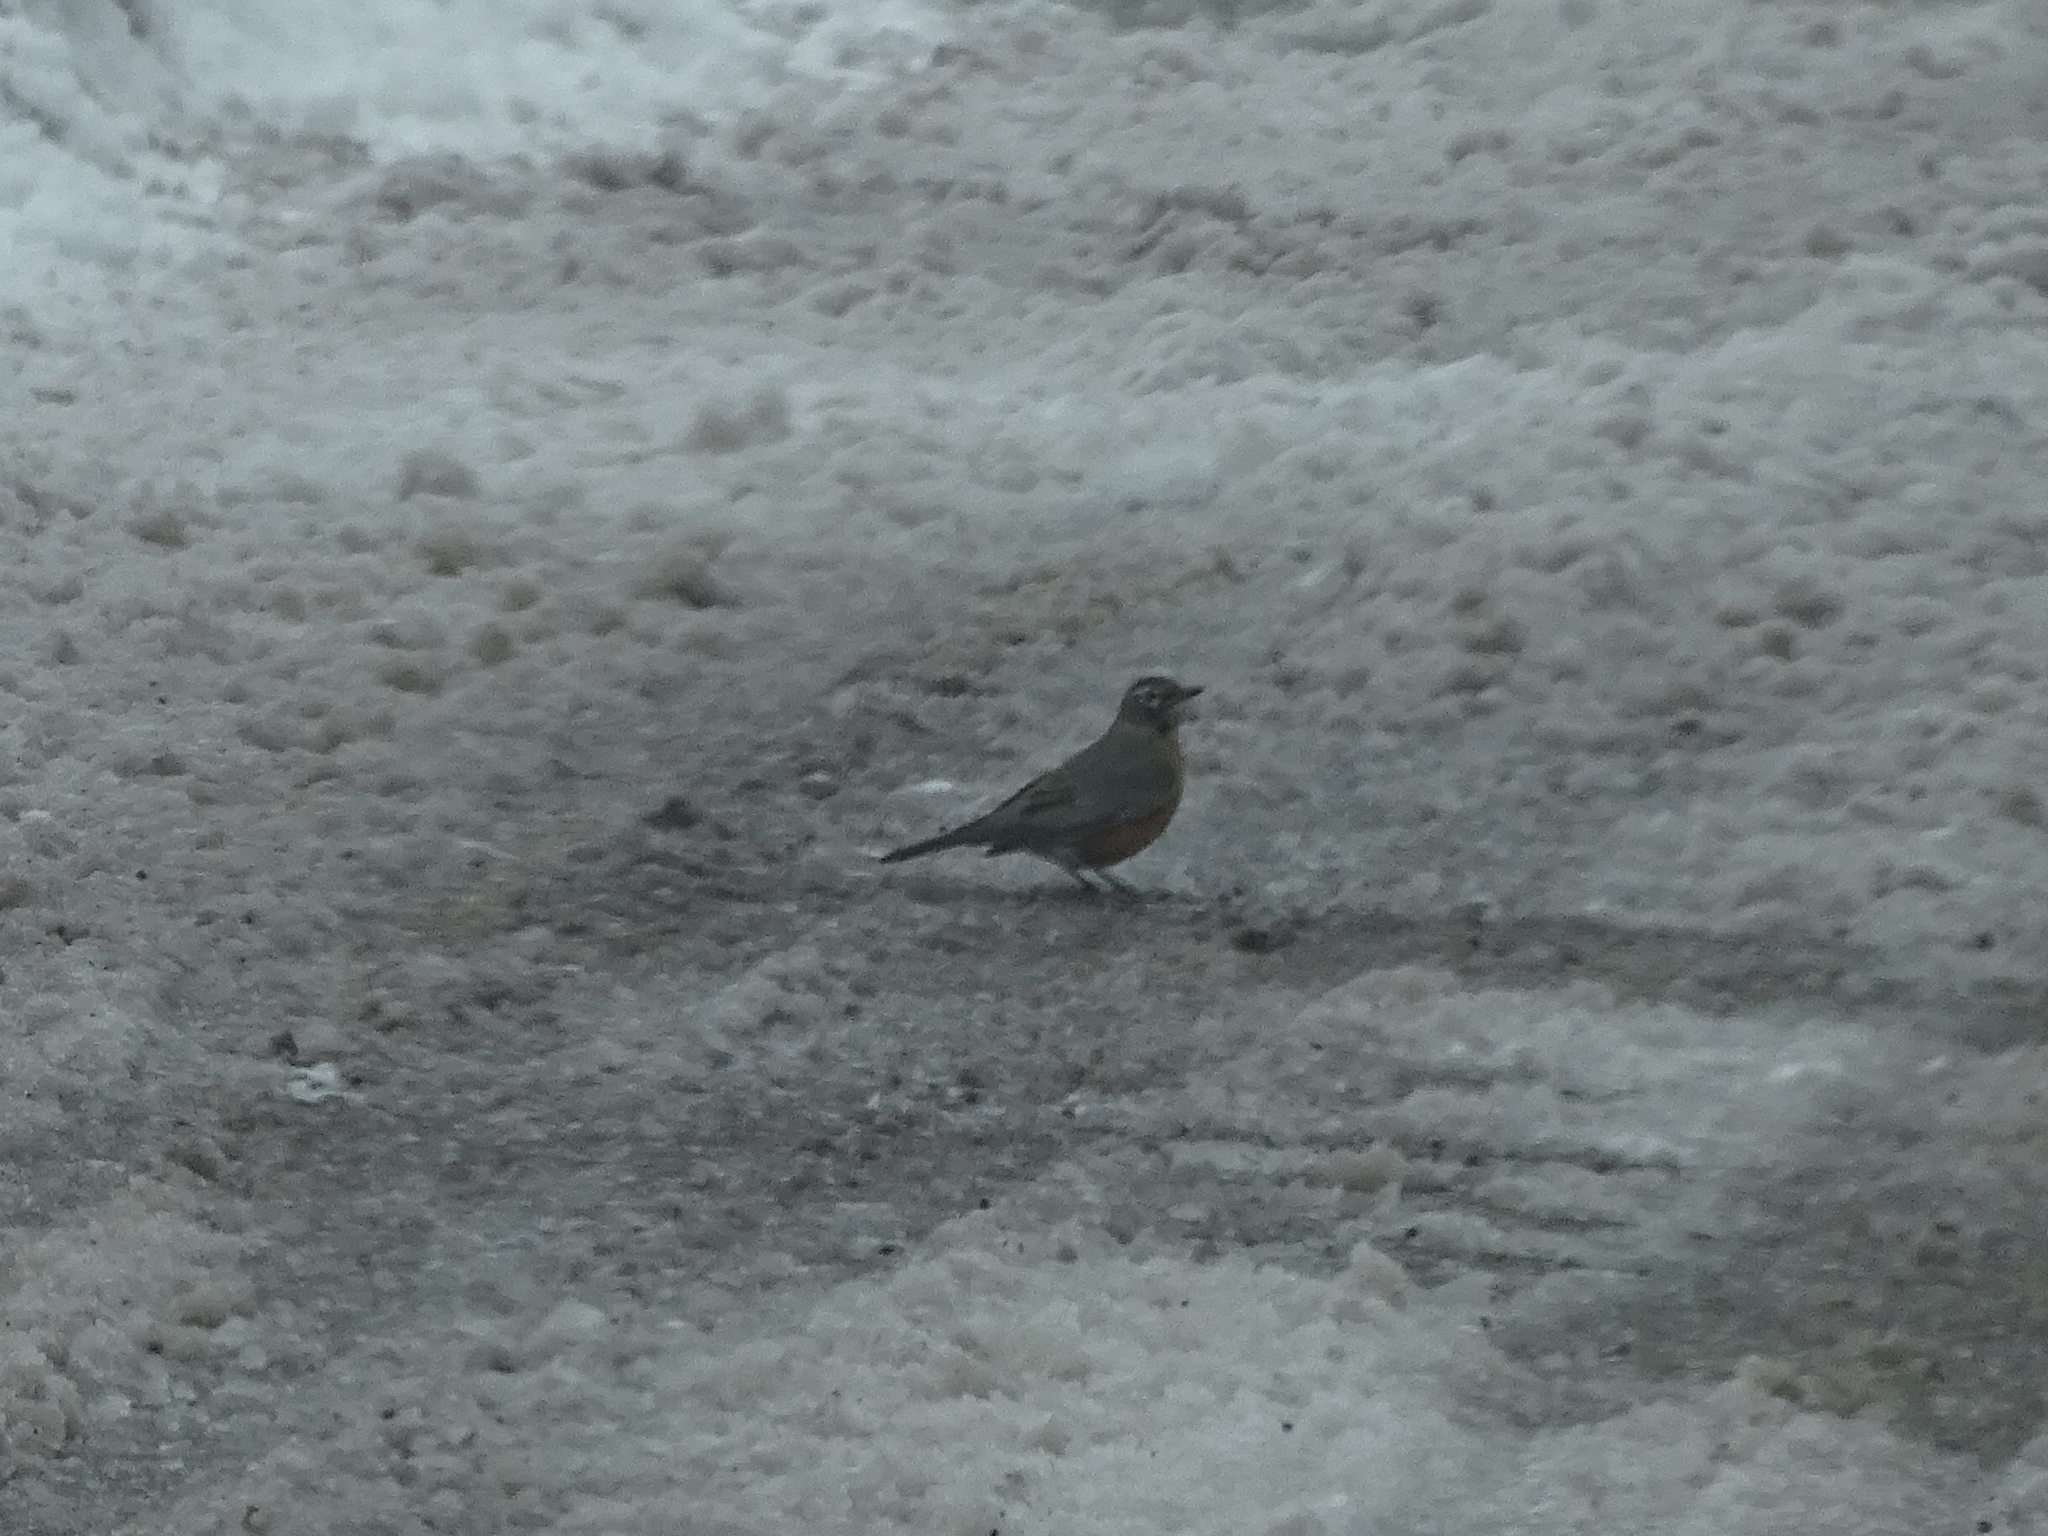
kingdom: Animalia
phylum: Chordata
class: Aves
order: Passeriformes
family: Turdidae
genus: Turdus
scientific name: Turdus migratorius
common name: American robin
